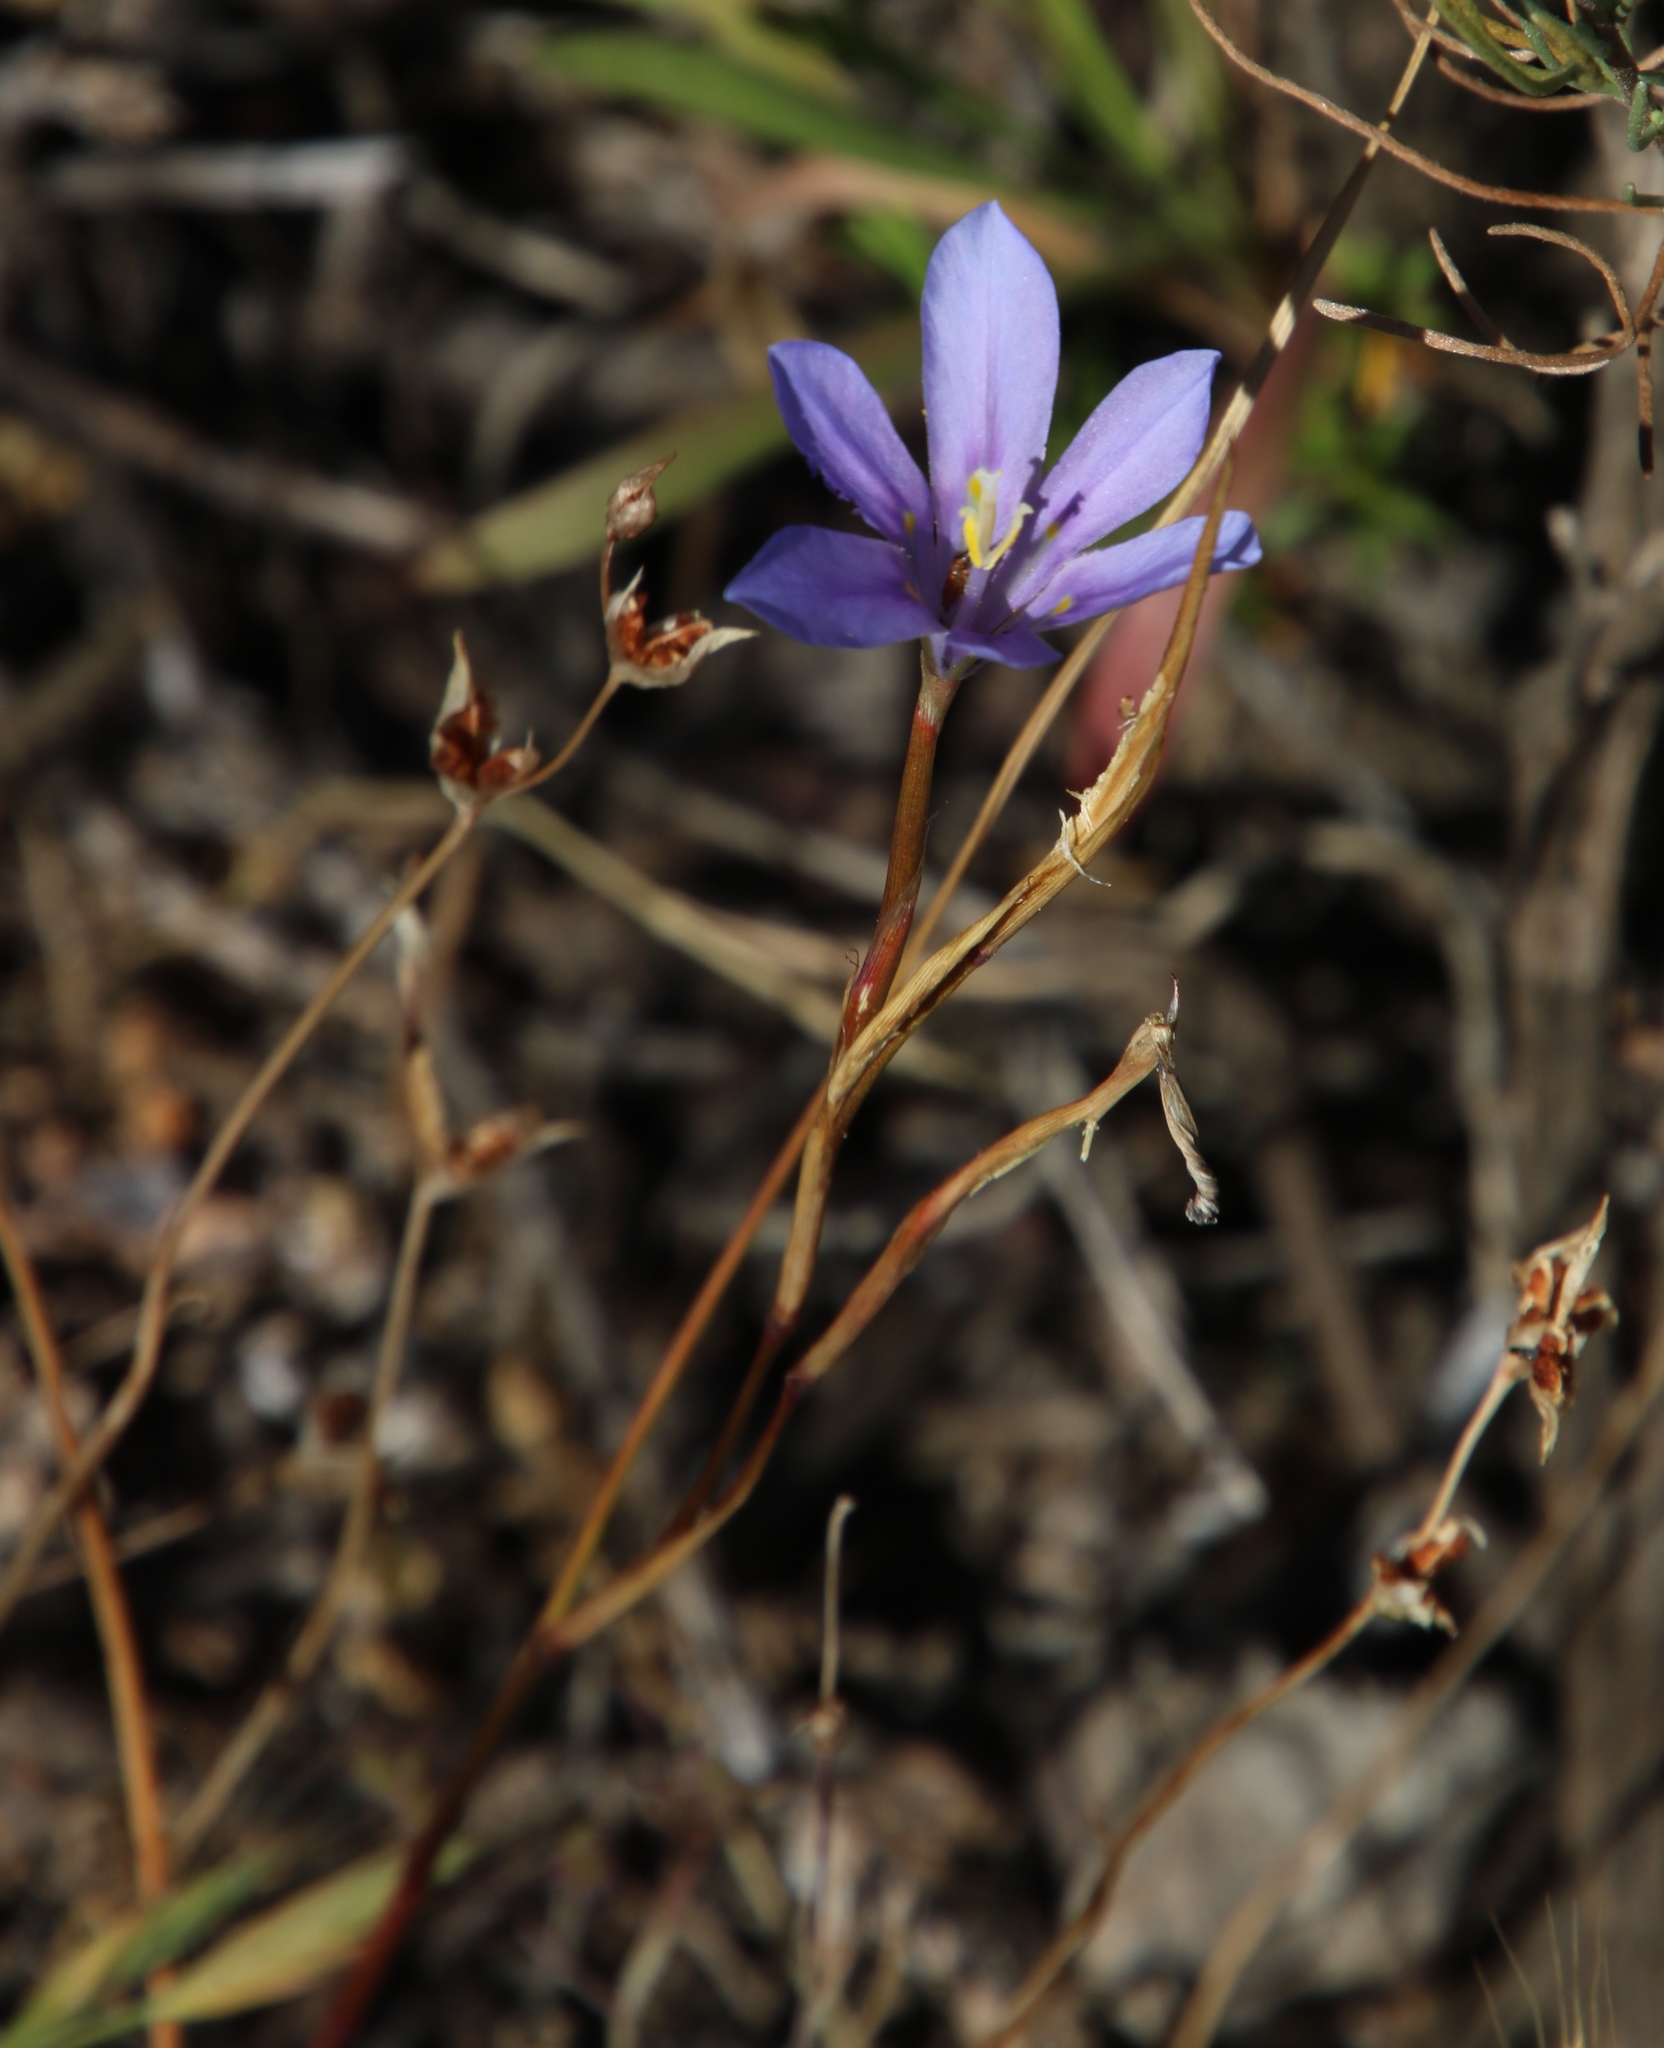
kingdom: Plantae
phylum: Tracheophyta
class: Liliopsida
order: Asparagales
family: Iridaceae
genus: Moraea
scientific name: Moraea polyanthos
